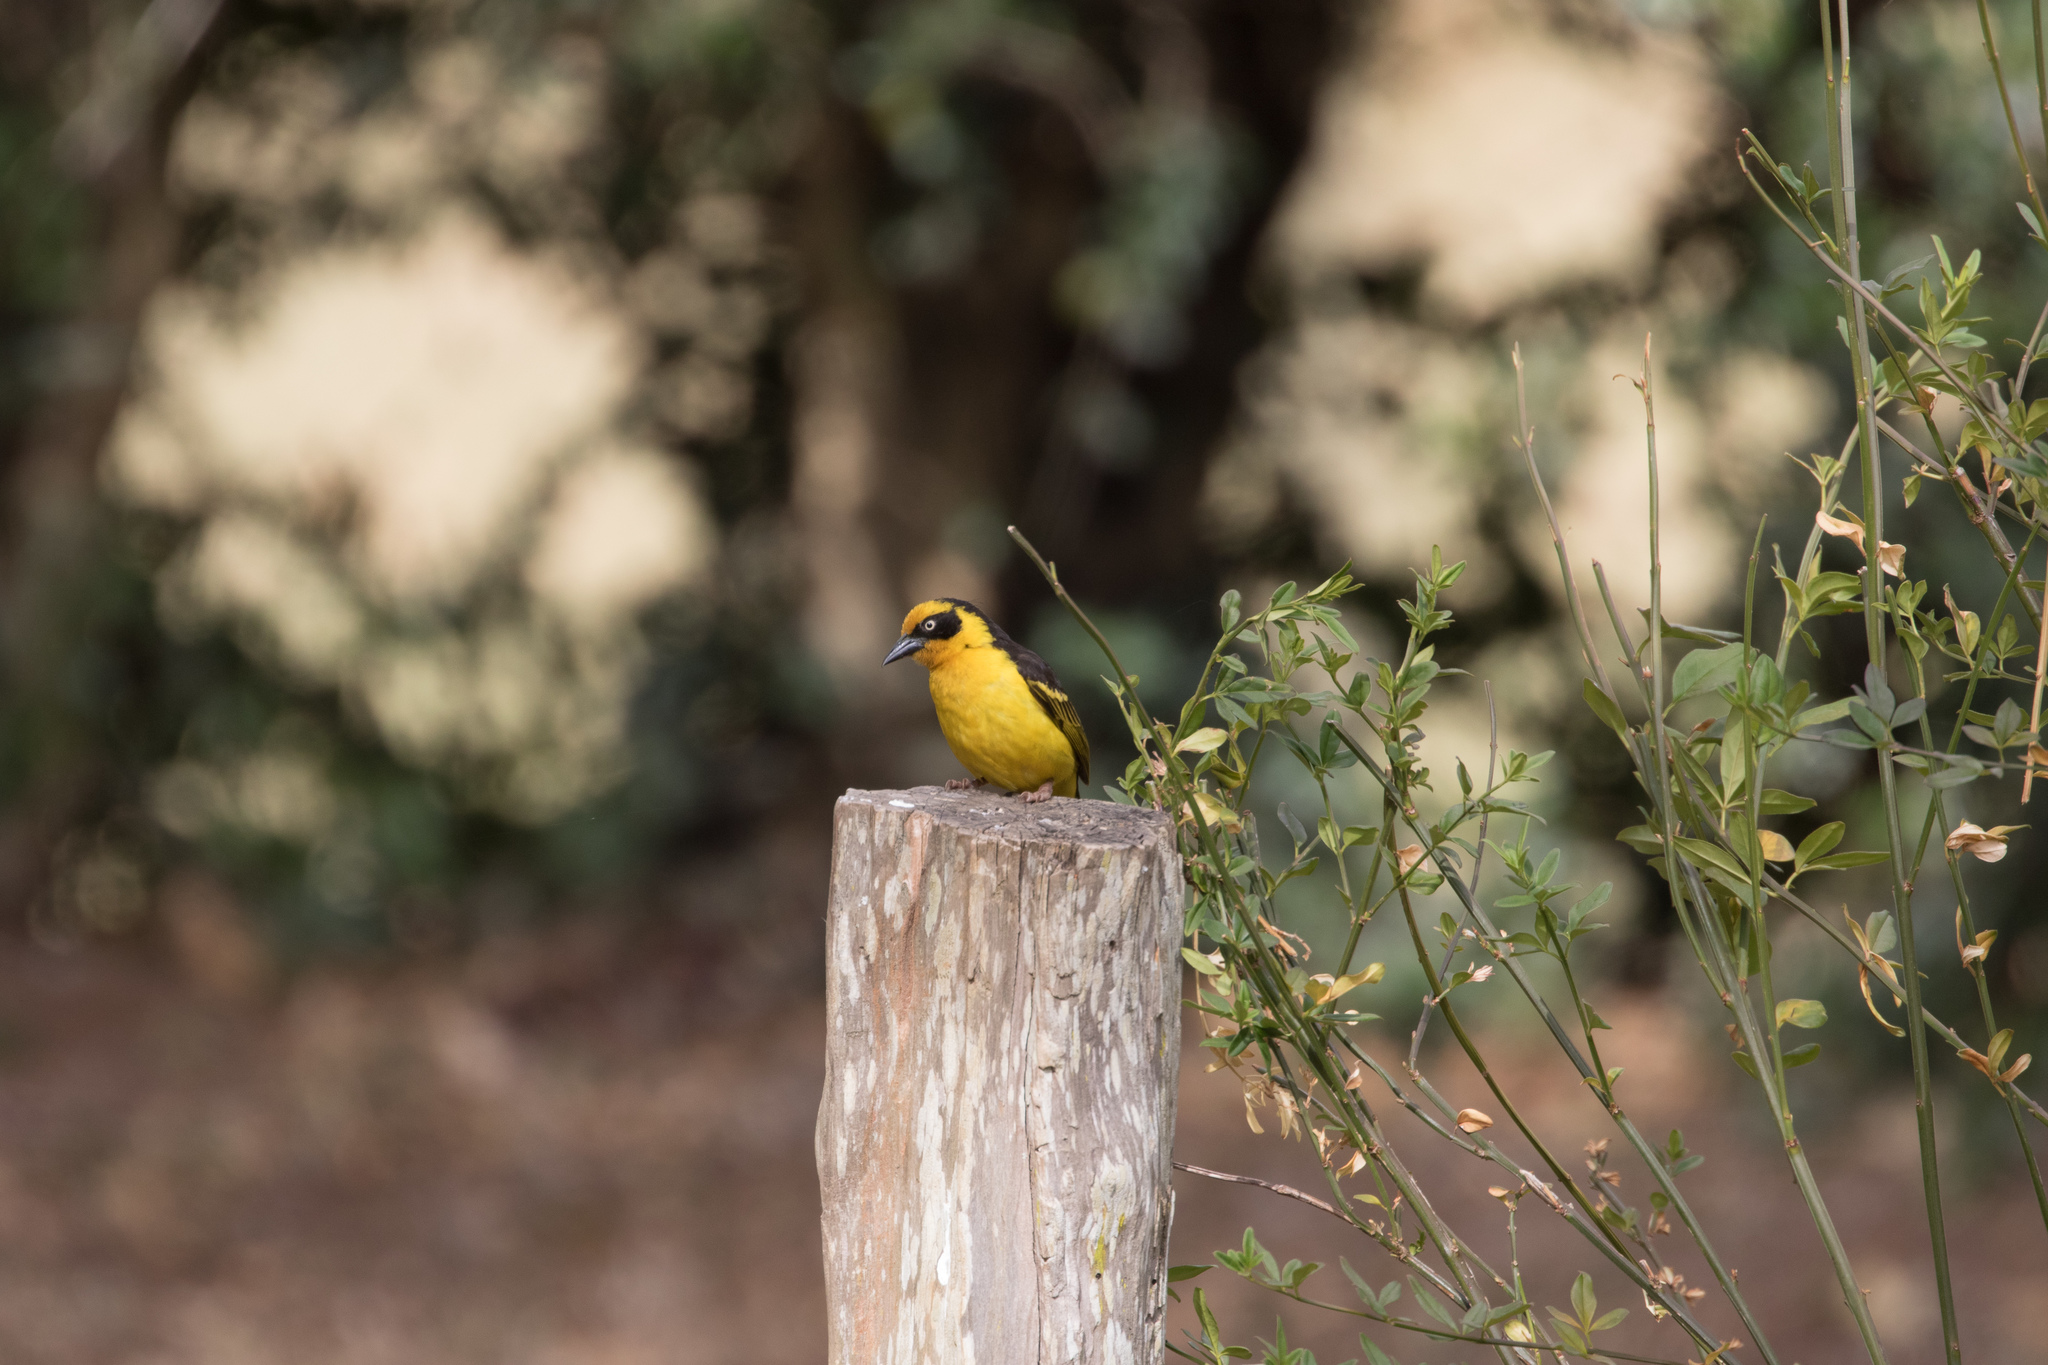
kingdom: Animalia
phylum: Chordata
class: Aves
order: Passeriformes
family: Ploceidae
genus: Ploceus
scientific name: Ploceus baglafecht
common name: Baglafecht weaver
